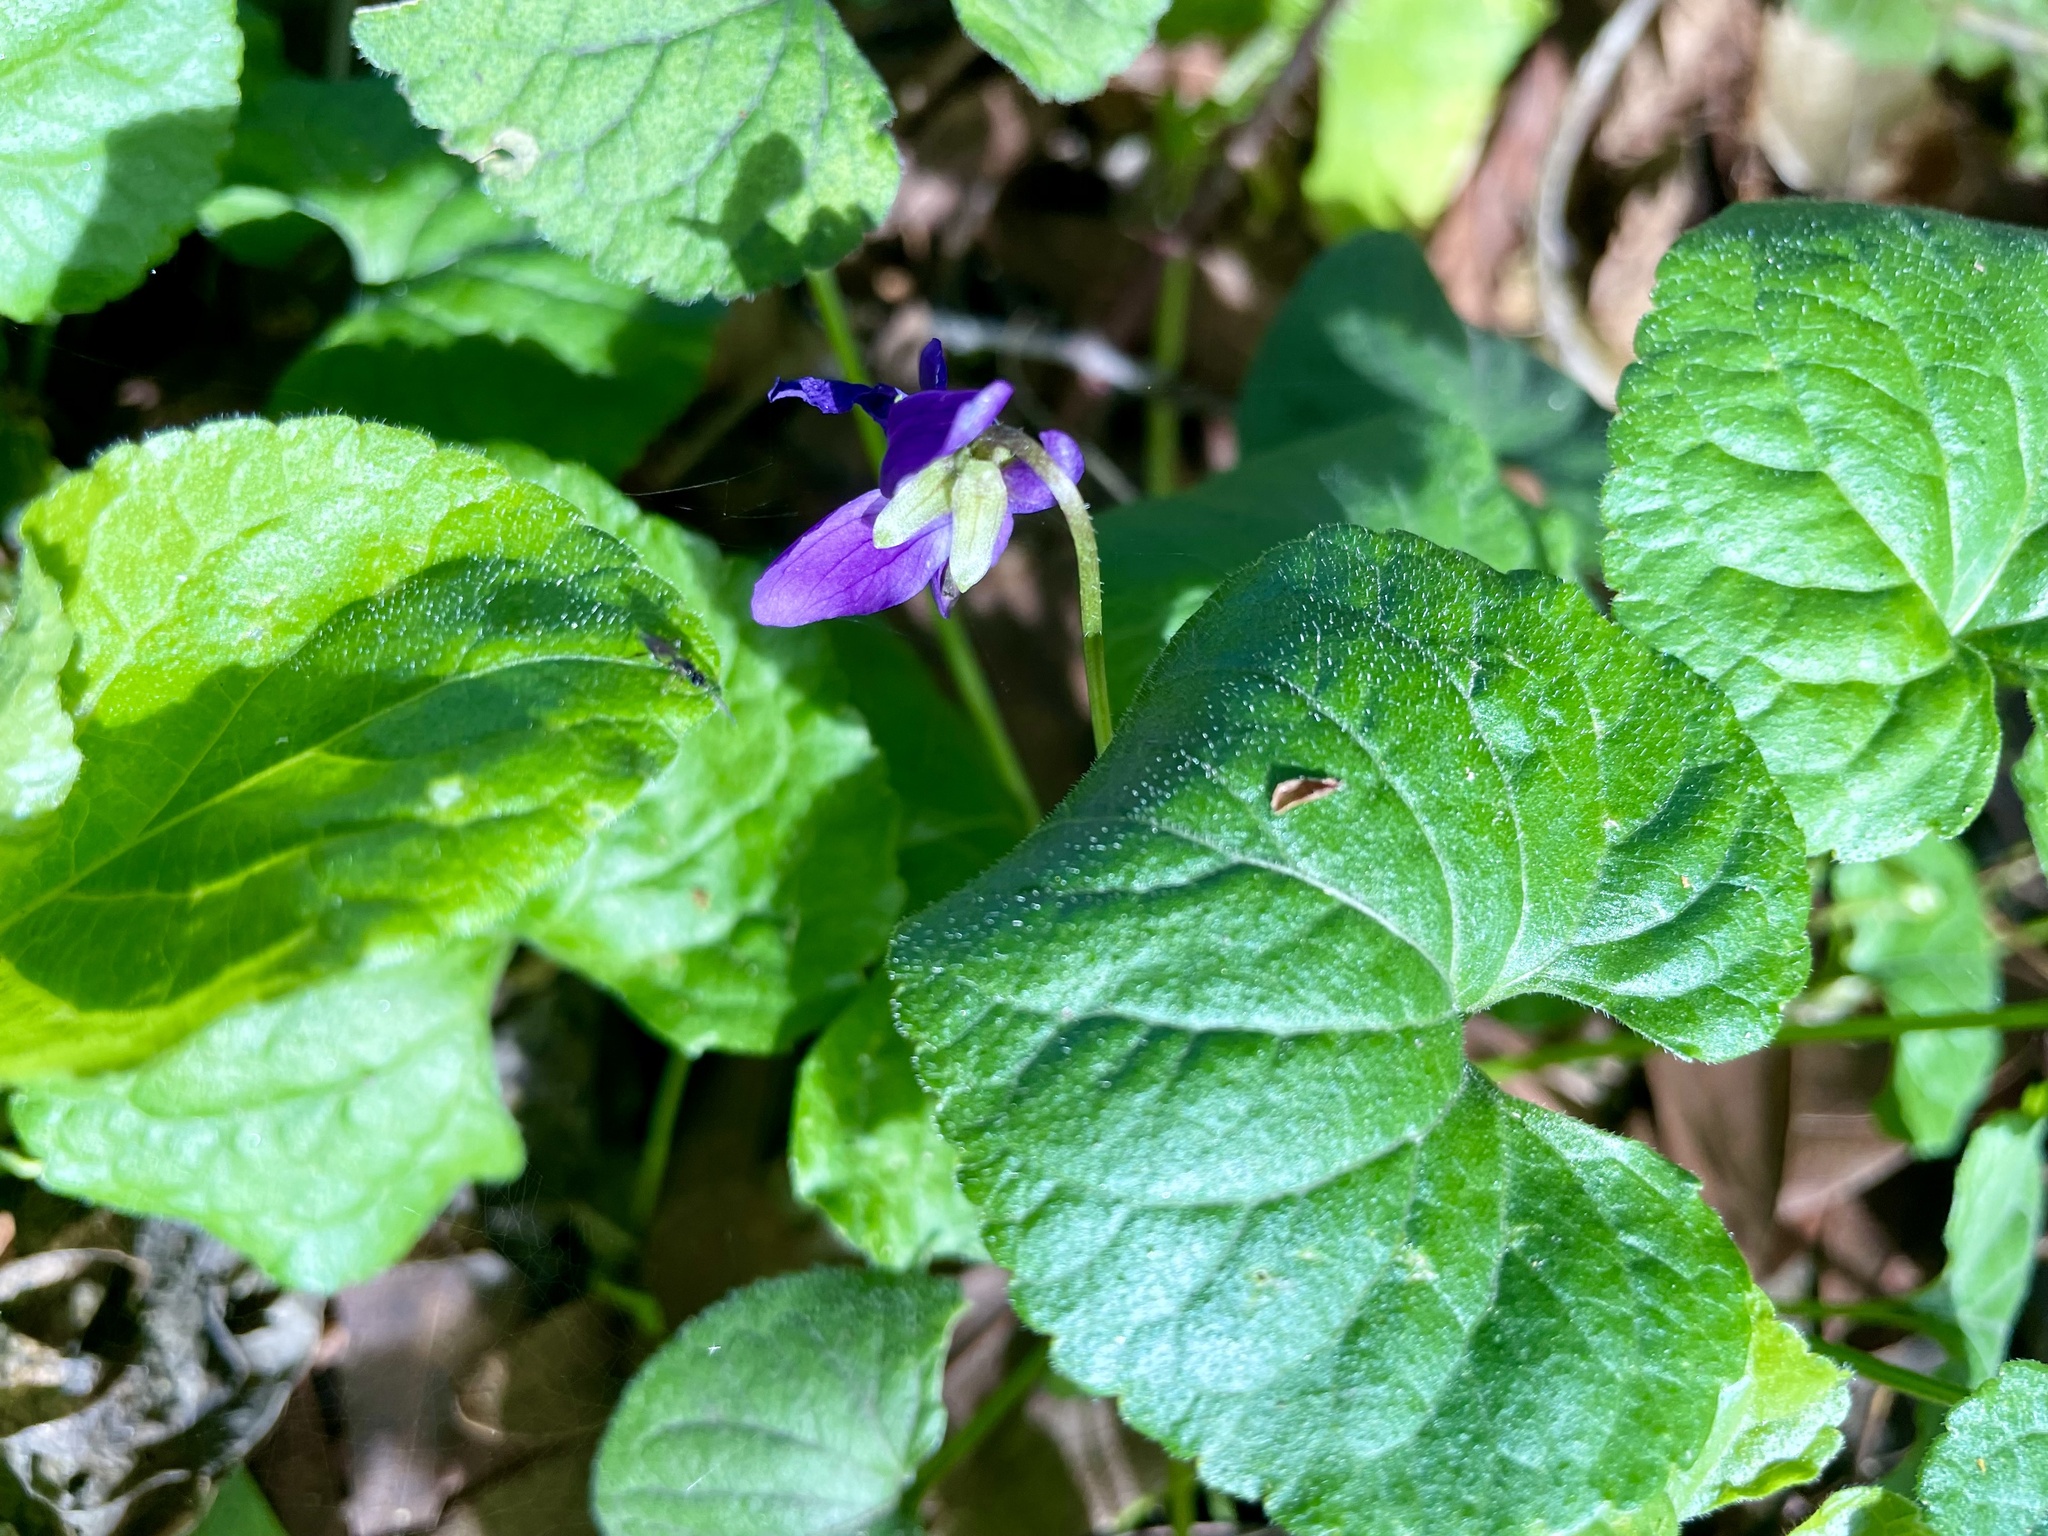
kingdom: Plantae
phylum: Tracheophyta
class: Magnoliopsida
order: Malpighiales
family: Violaceae
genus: Viola
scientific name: Viola odorata
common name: Sweet violet
